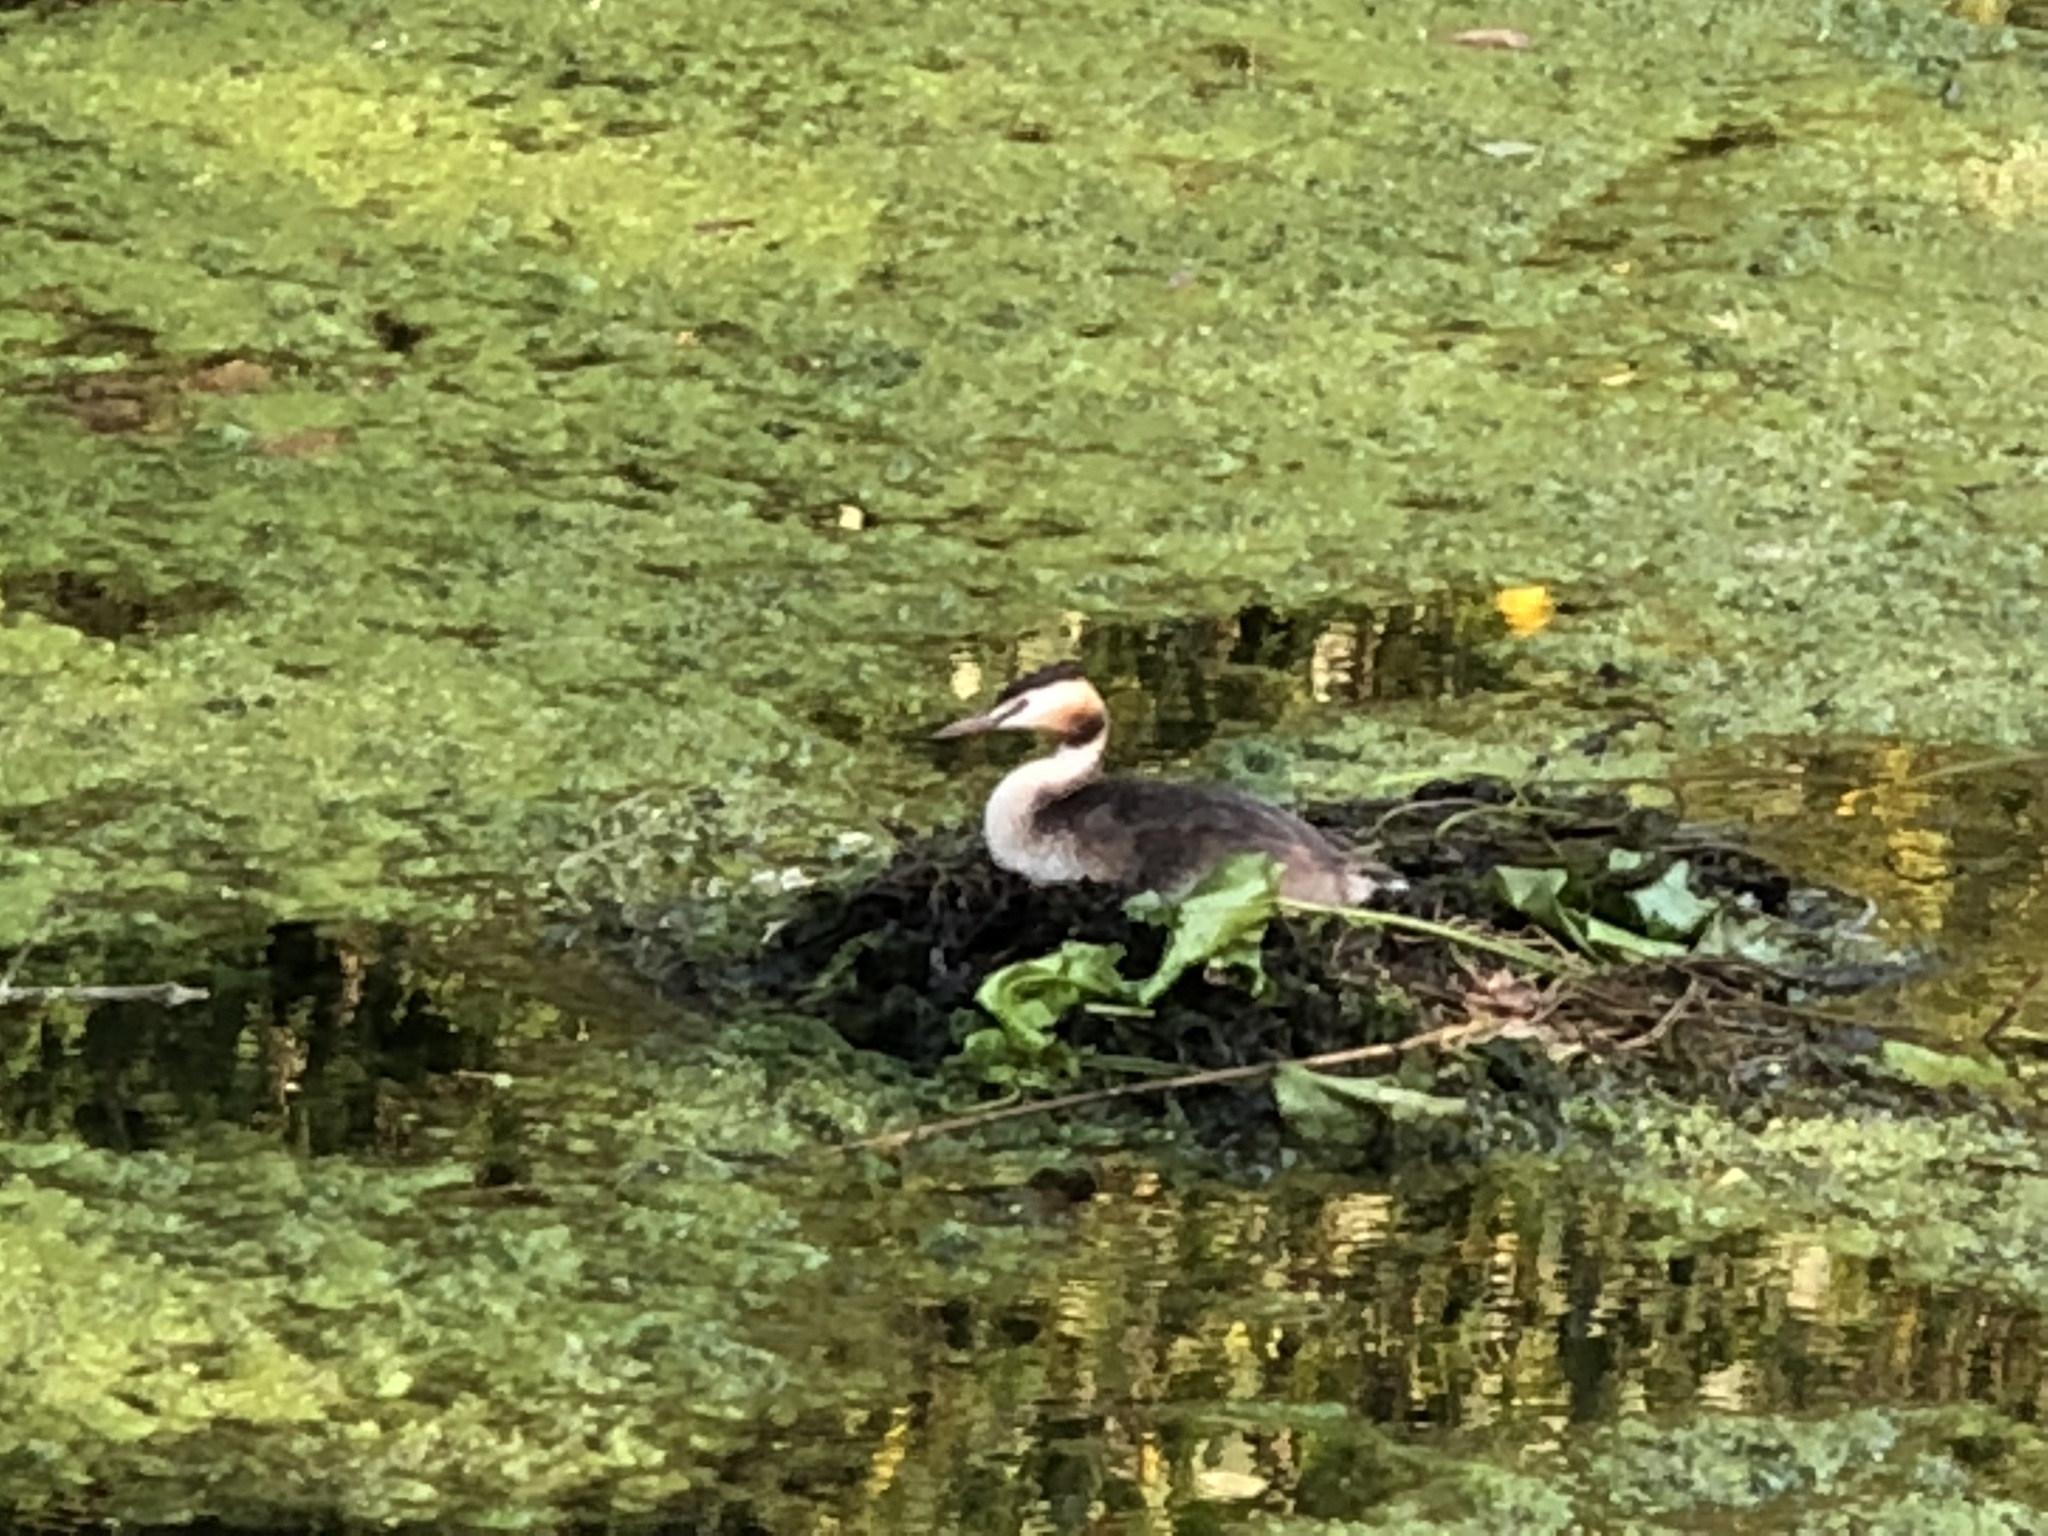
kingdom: Animalia
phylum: Chordata
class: Aves
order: Podicipediformes
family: Podicipedidae
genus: Podiceps
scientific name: Podiceps cristatus
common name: Great crested grebe
